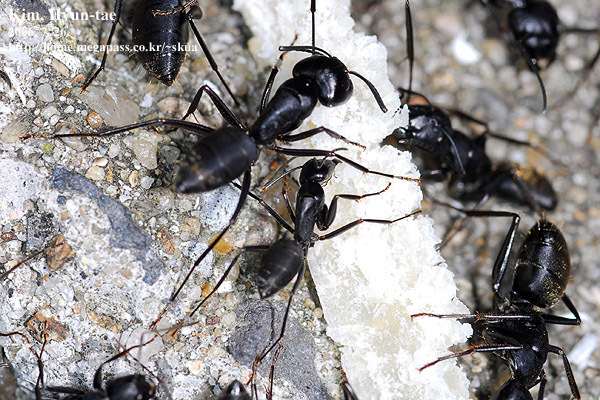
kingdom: Animalia
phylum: Arthropoda
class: Insecta
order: Hymenoptera
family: Formicidae
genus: Camponotus
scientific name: Camponotus japonicus
